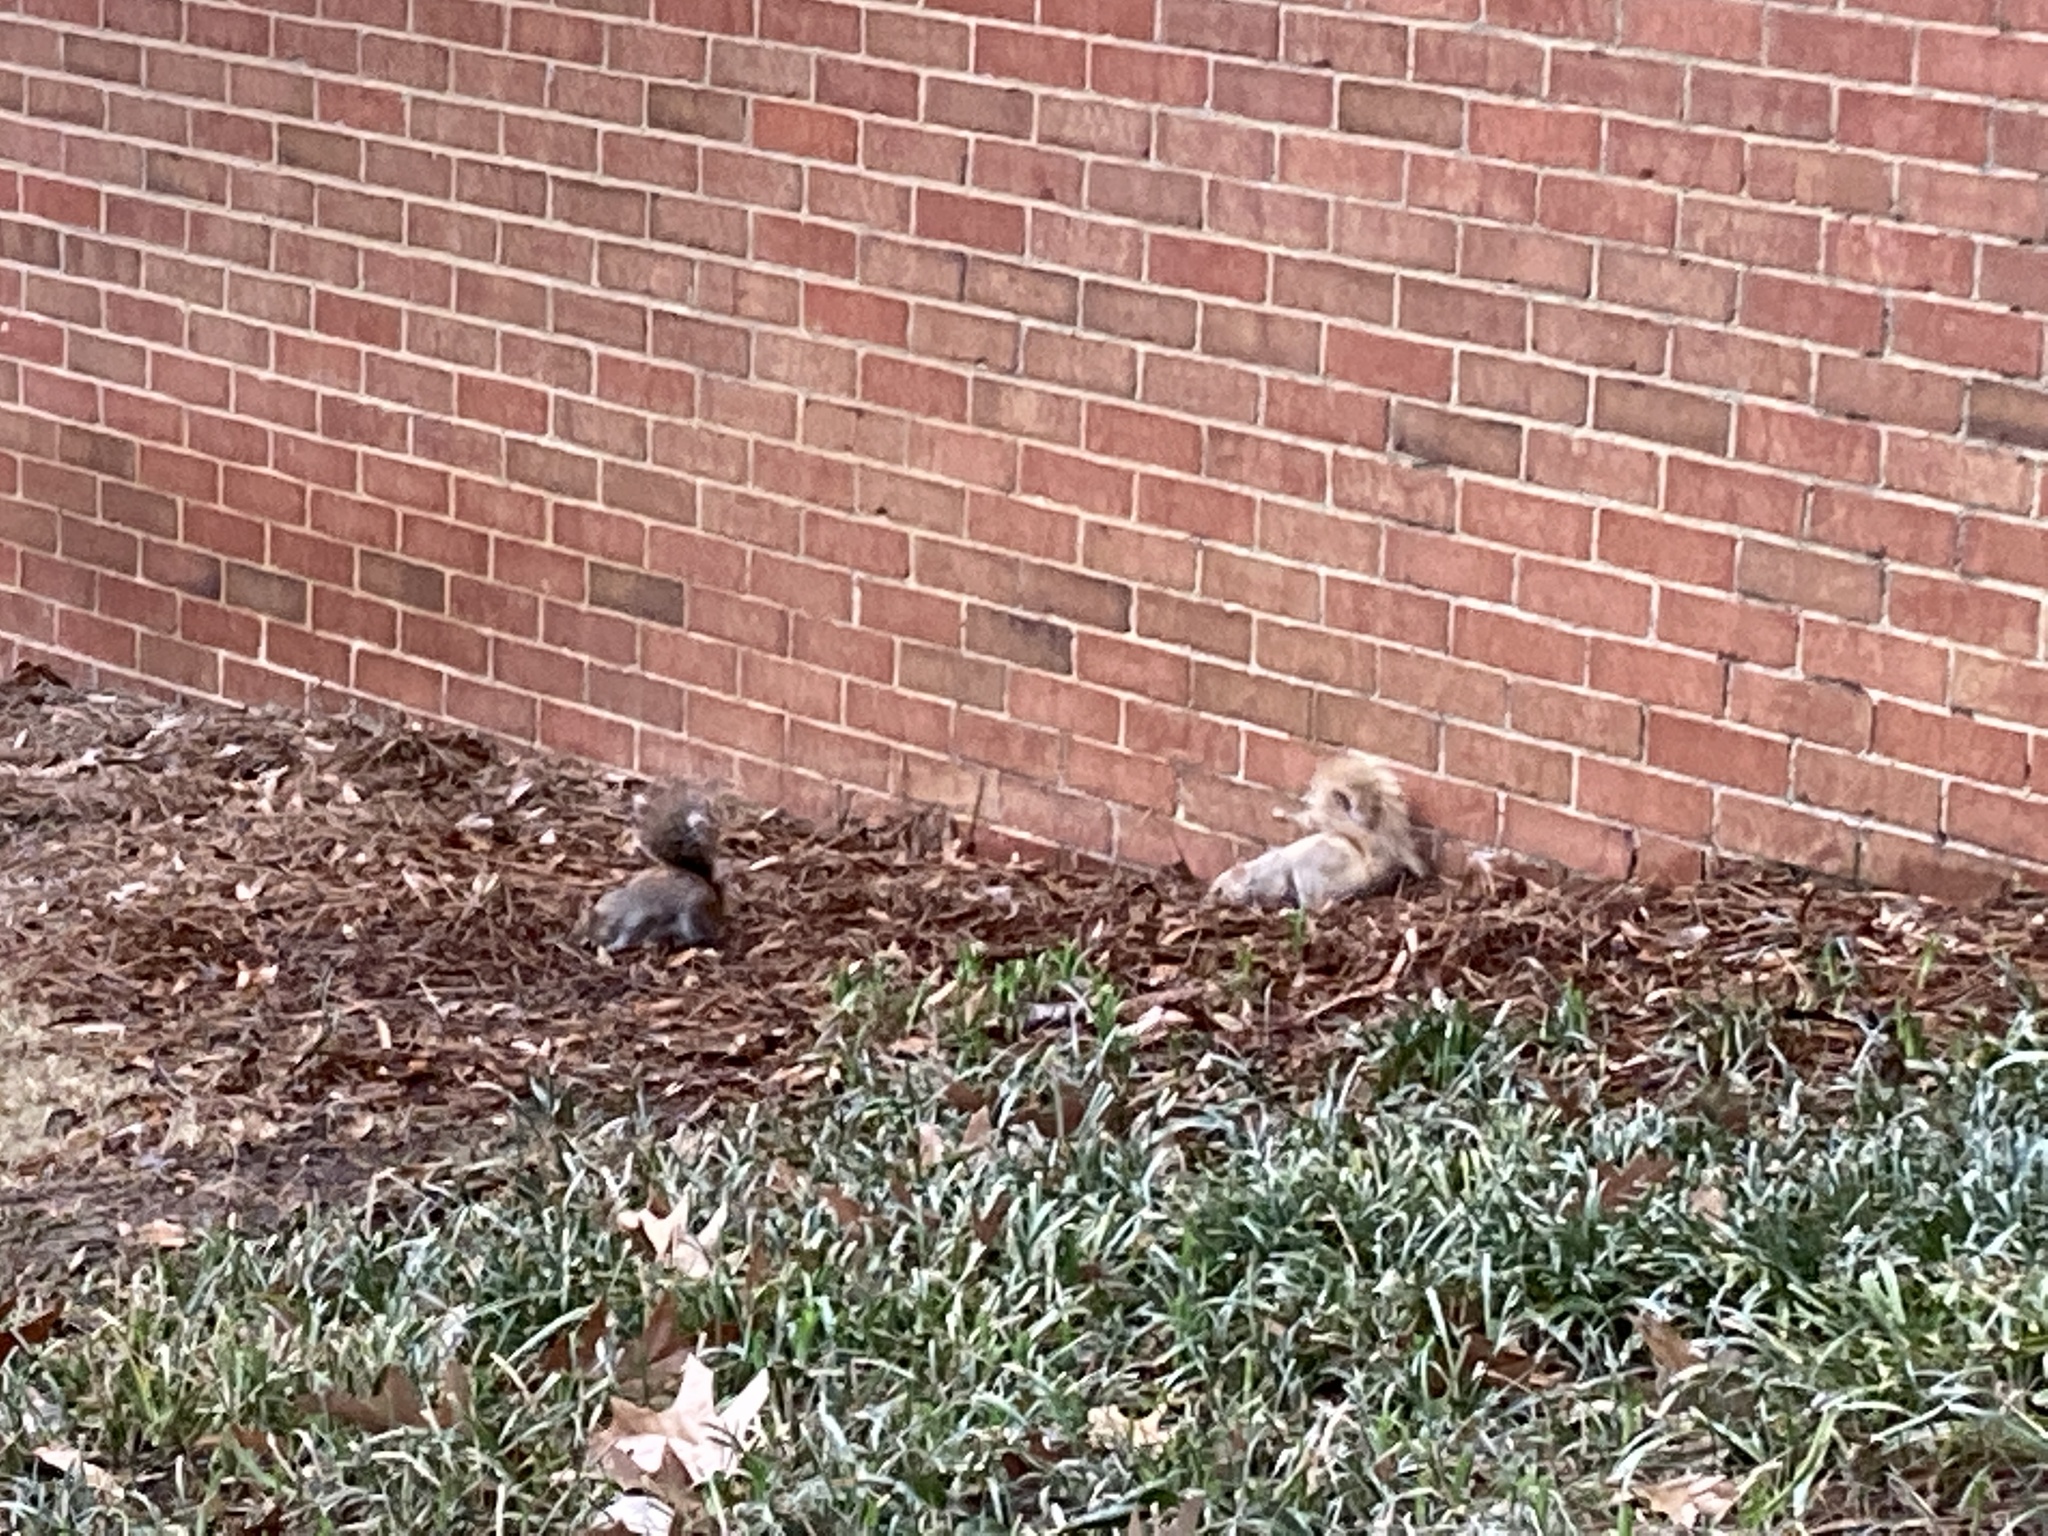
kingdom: Animalia
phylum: Chordata
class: Mammalia
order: Rodentia
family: Sciuridae
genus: Sciurus
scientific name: Sciurus carolinensis
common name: Eastern gray squirrel
